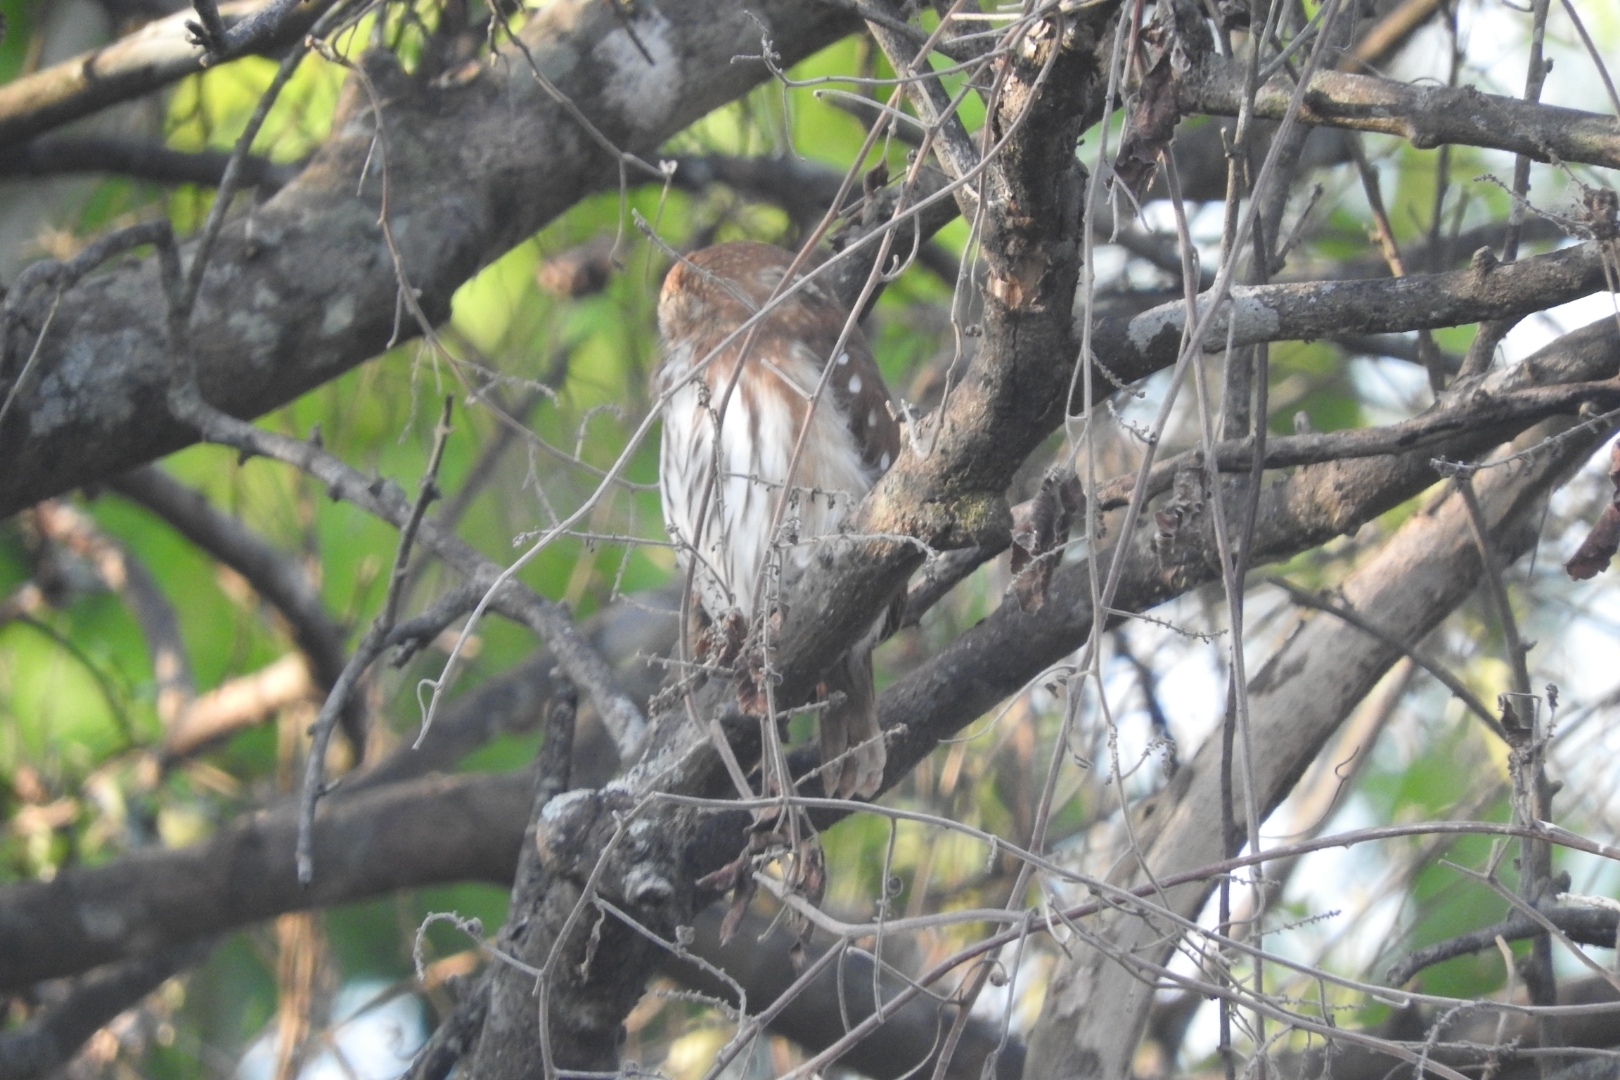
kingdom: Animalia
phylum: Chordata
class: Aves
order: Strigiformes
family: Strigidae
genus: Glaucidium
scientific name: Glaucidium brasilianum
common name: Ferruginous pygmy-owl
